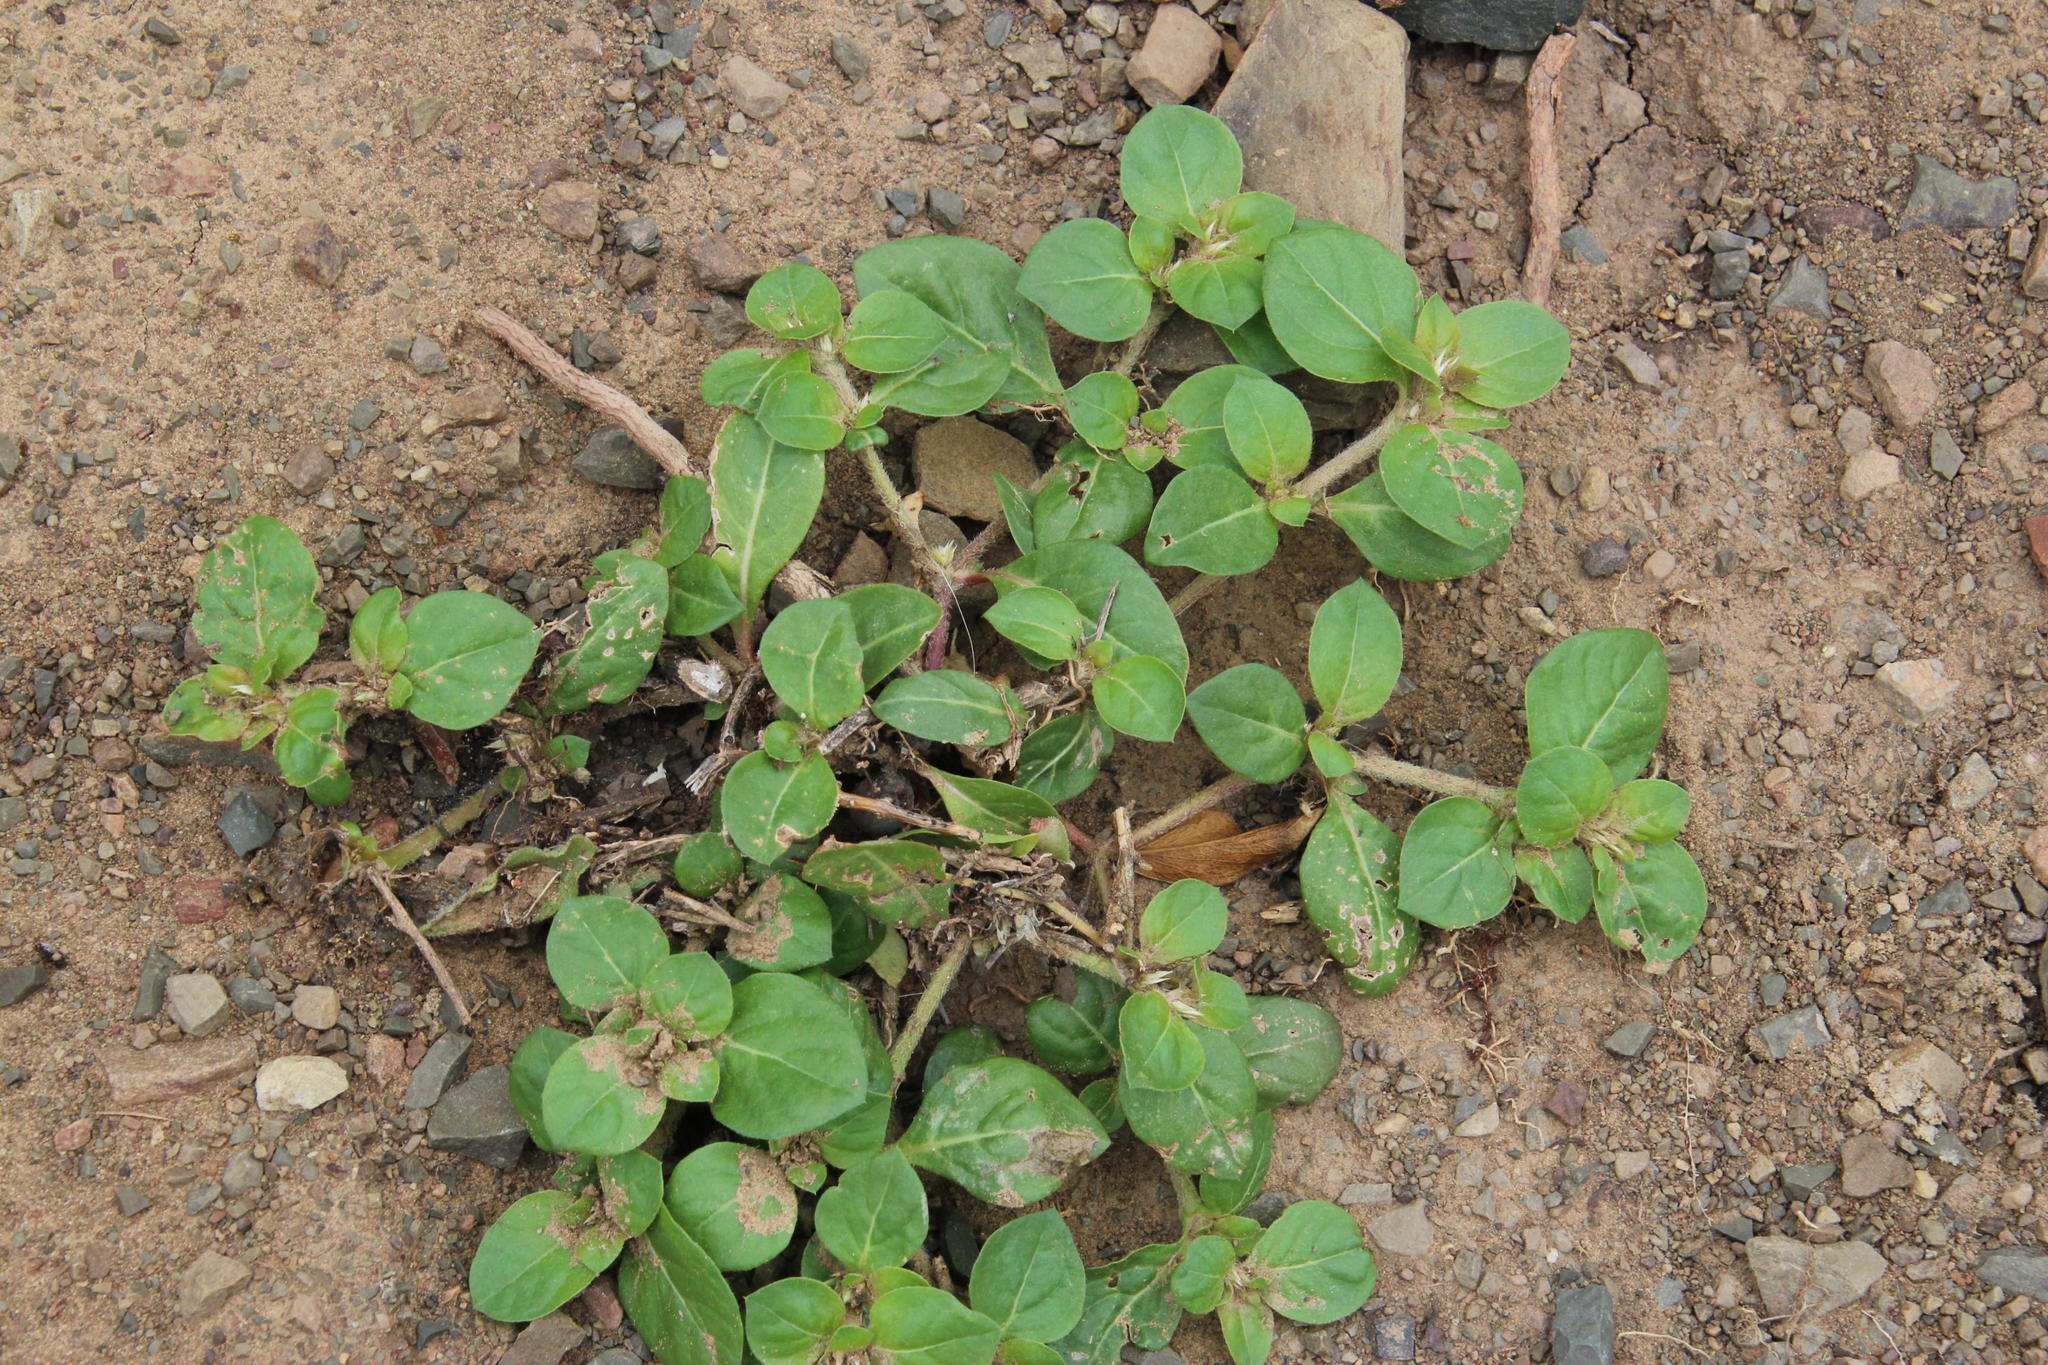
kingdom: Plantae
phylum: Tracheophyta
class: Magnoliopsida
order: Caryophyllales
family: Amaranthaceae
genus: Alternanthera
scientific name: Alternanthera pungens
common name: Khakiweed
